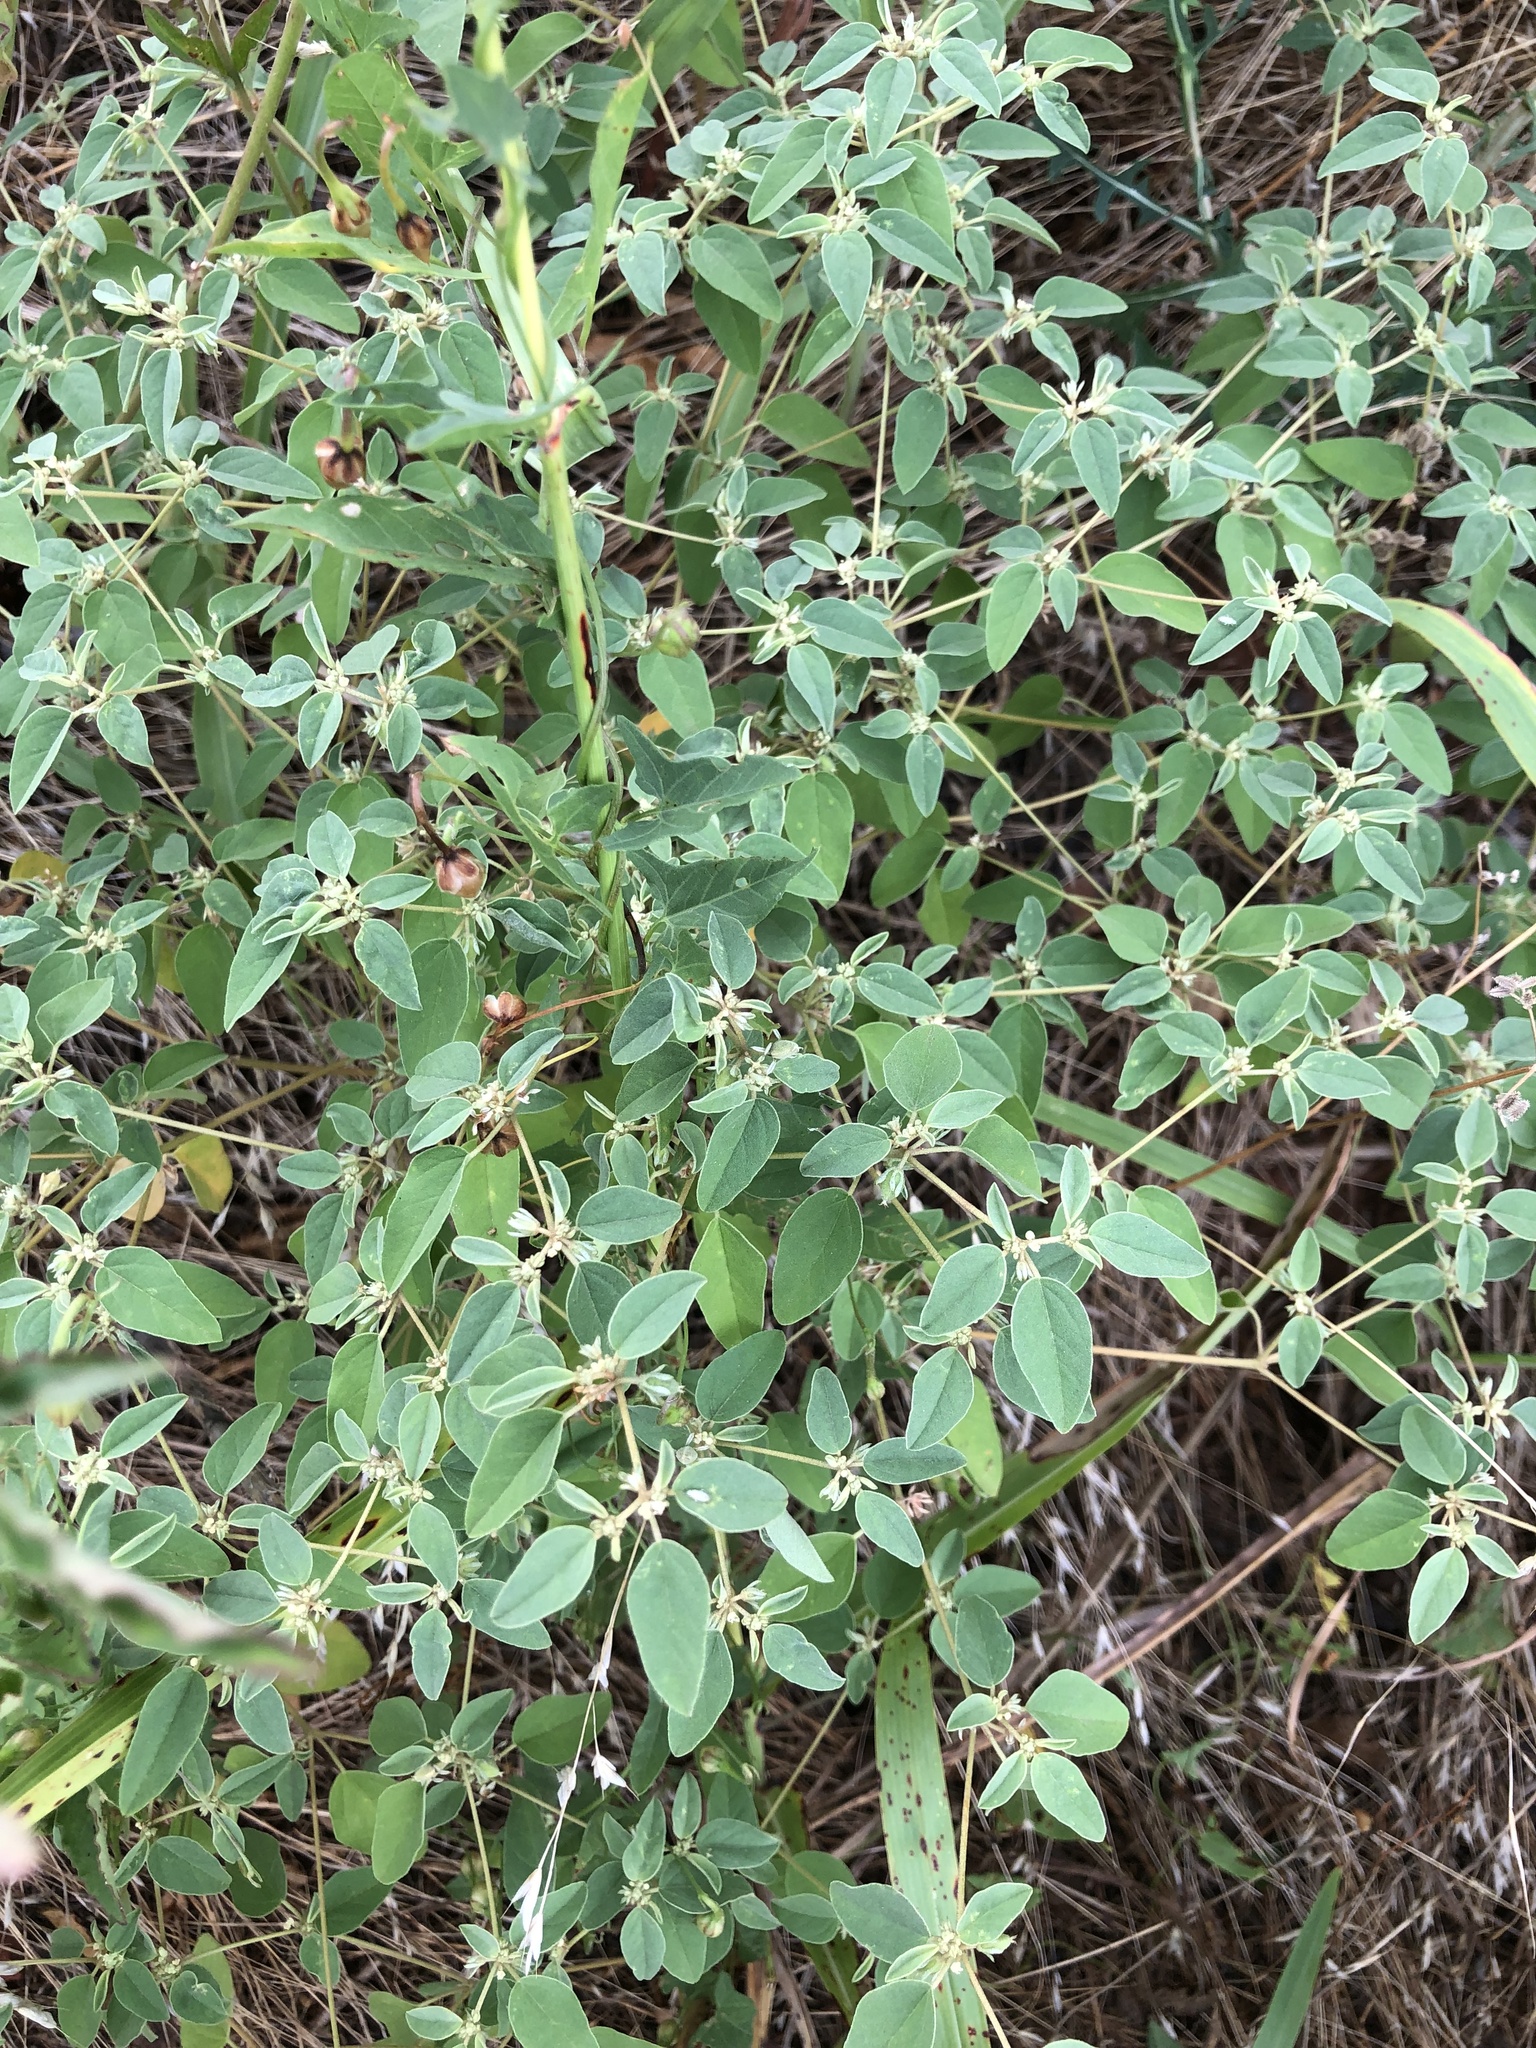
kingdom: Plantae
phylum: Tracheophyta
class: Magnoliopsida
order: Malpighiales
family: Euphorbiaceae
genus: Croton
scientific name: Croton monanthogynus
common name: One-seed croton
